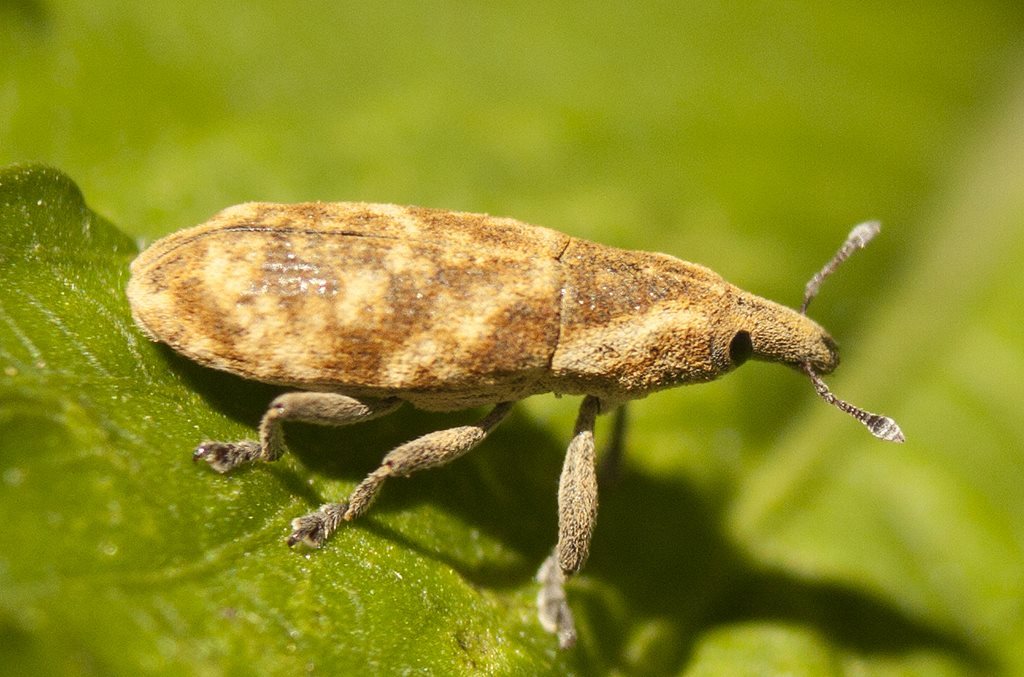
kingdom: Animalia
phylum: Arthropoda
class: Insecta
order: Coleoptera
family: Curculionidae
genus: Gasteroclisus
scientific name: Gasteroclisus
